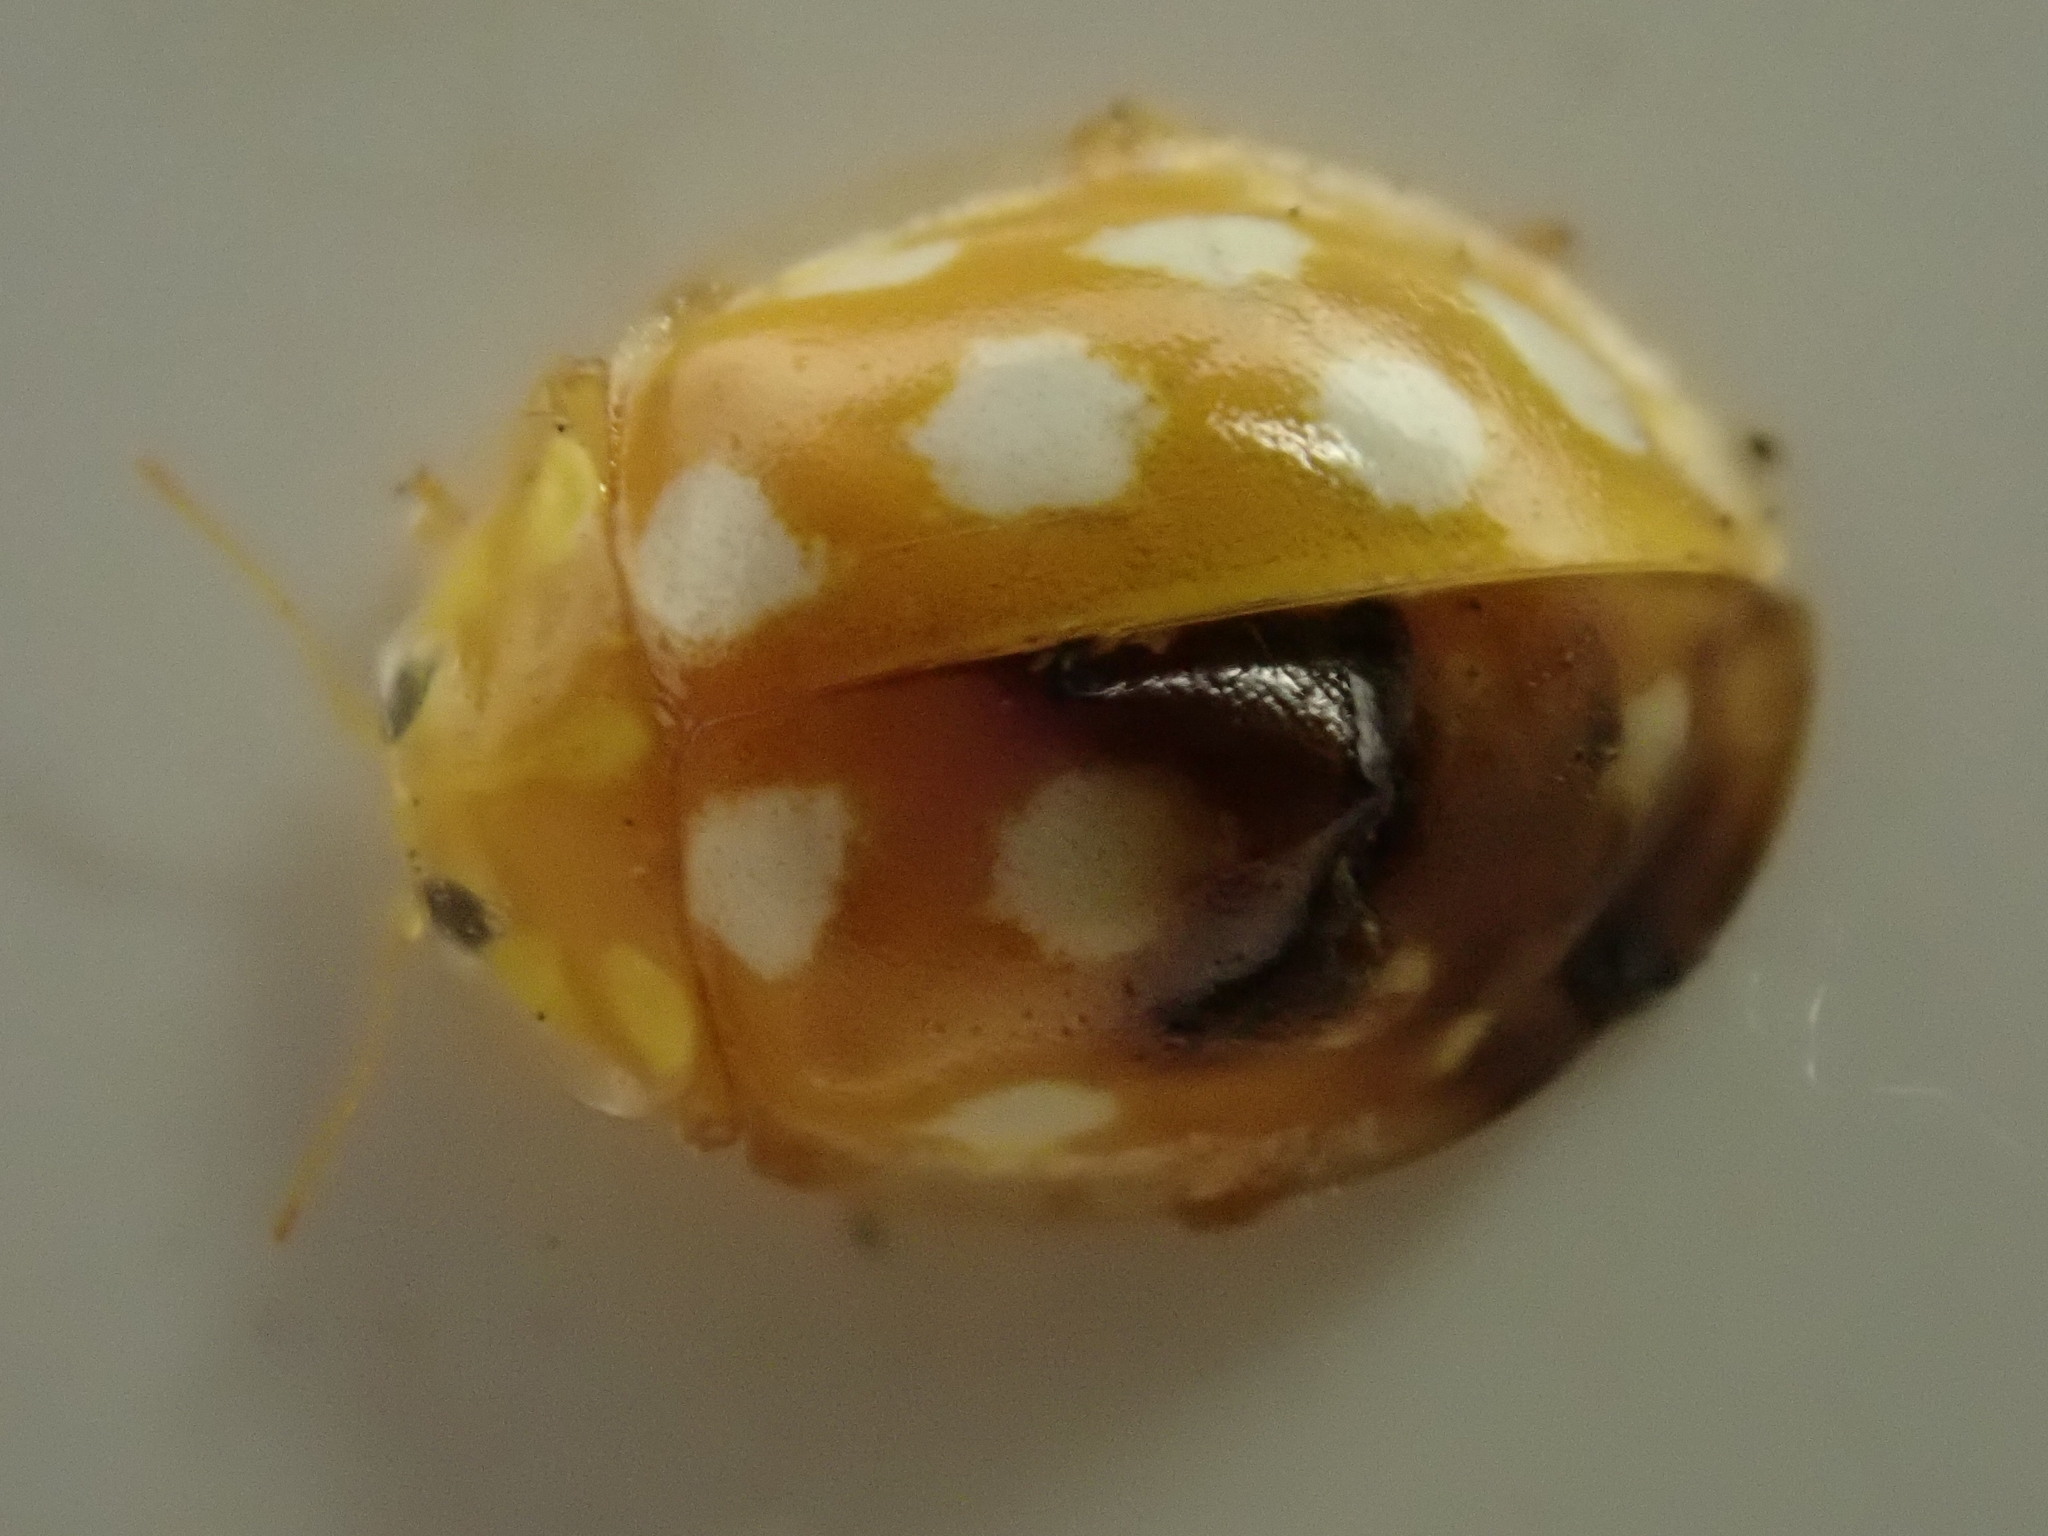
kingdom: Animalia
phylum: Arthropoda
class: Insecta
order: Coleoptera
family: Coccinellidae
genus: Halyzia
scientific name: Halyzia sedecimguttata
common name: Orange ladybird
